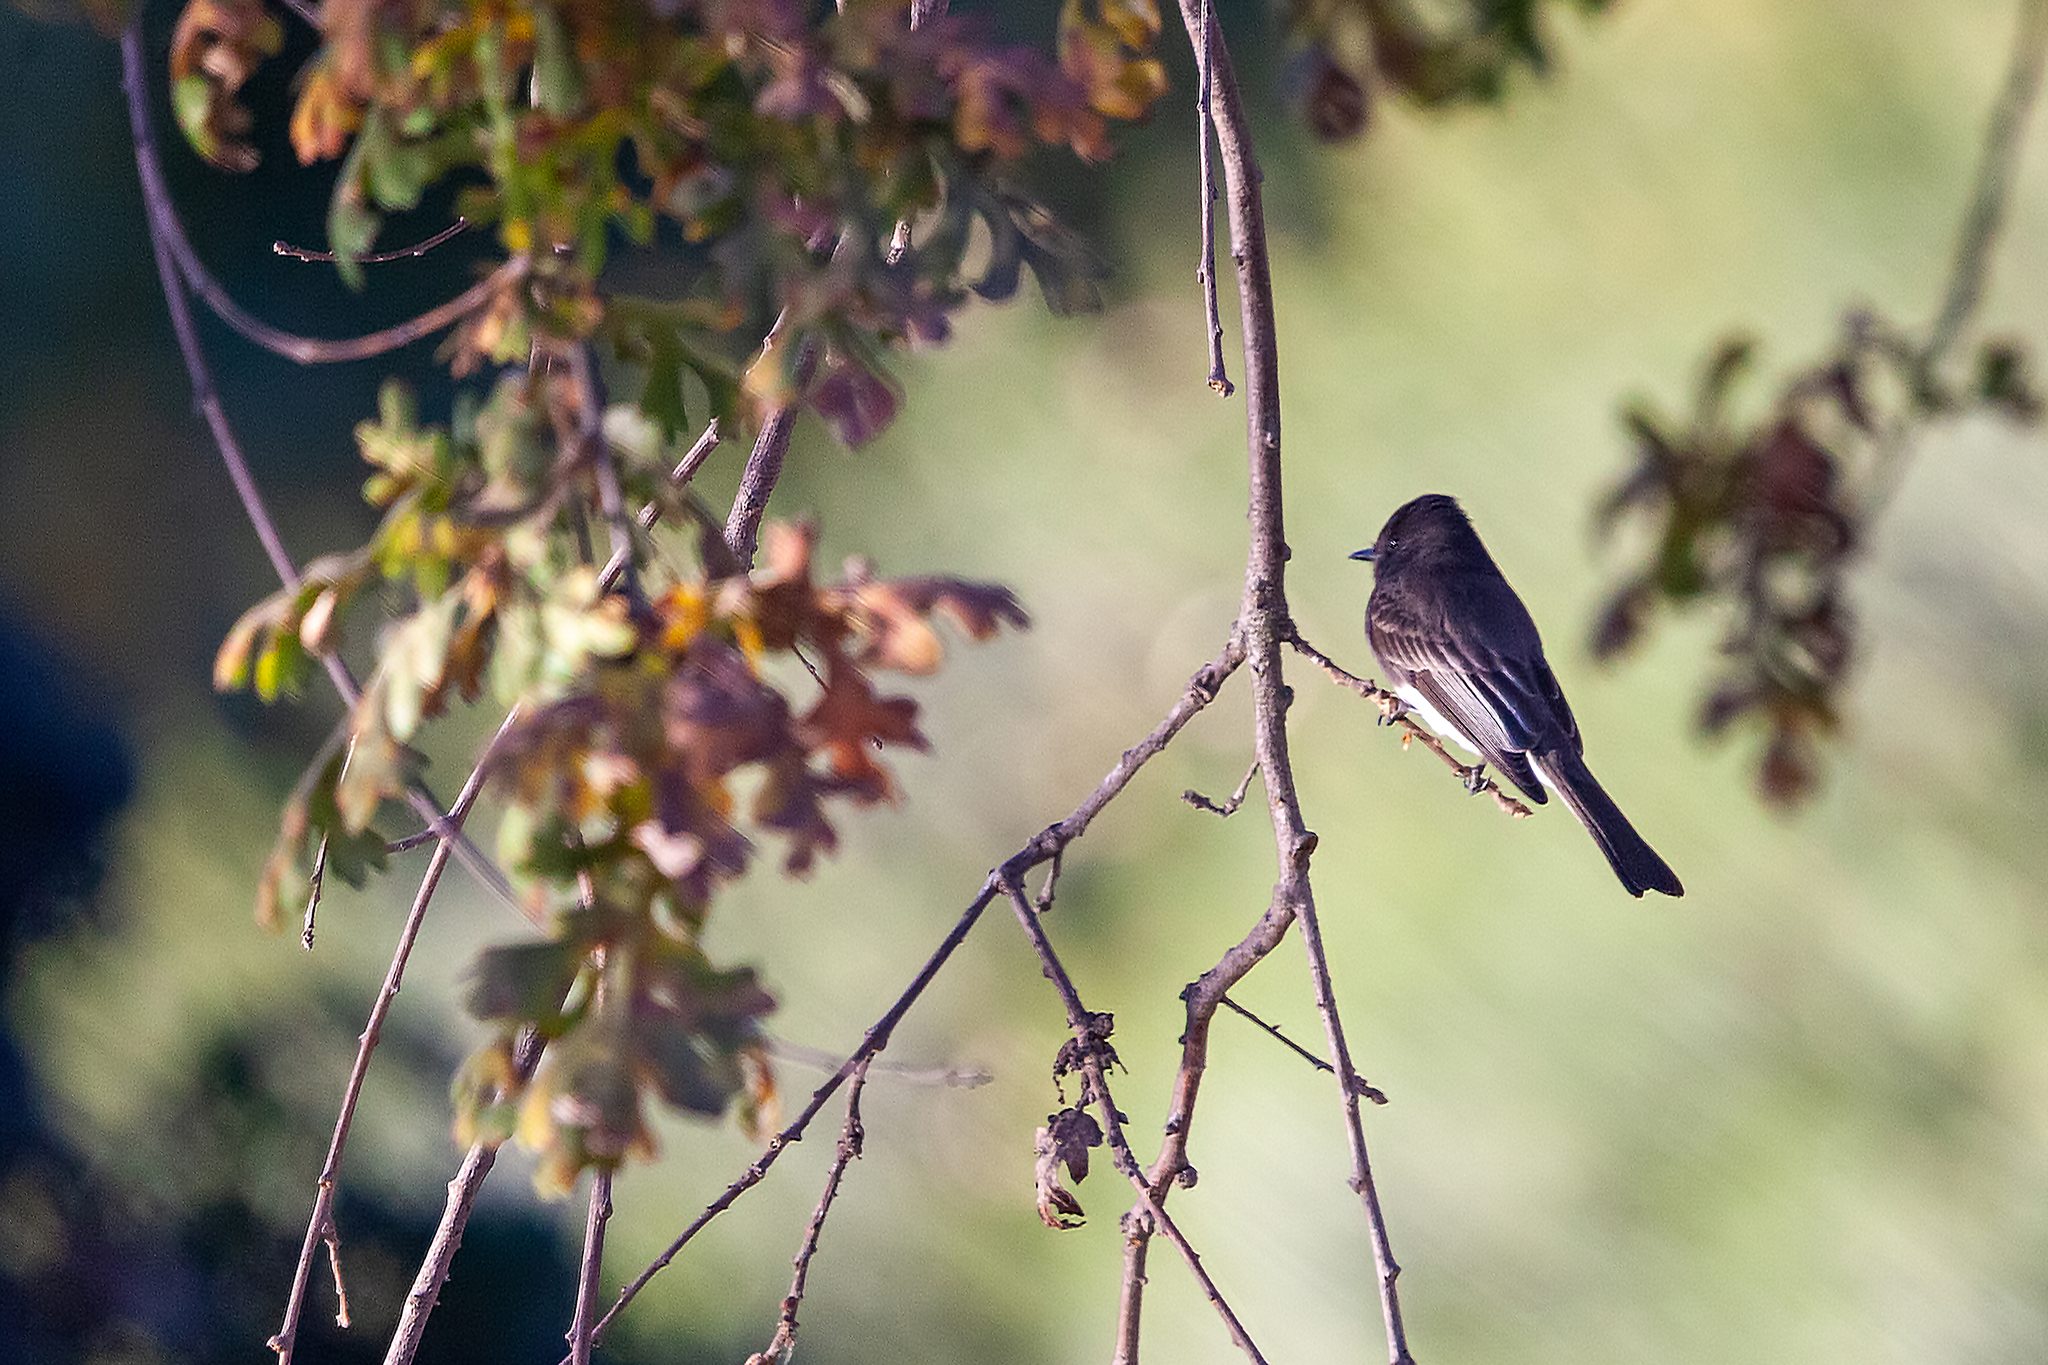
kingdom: Animalia
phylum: Chordata
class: Aves
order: Passeriformes
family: Tyrannidae
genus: Sayornis
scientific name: Sayornis nigricans
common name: Black phoebe
